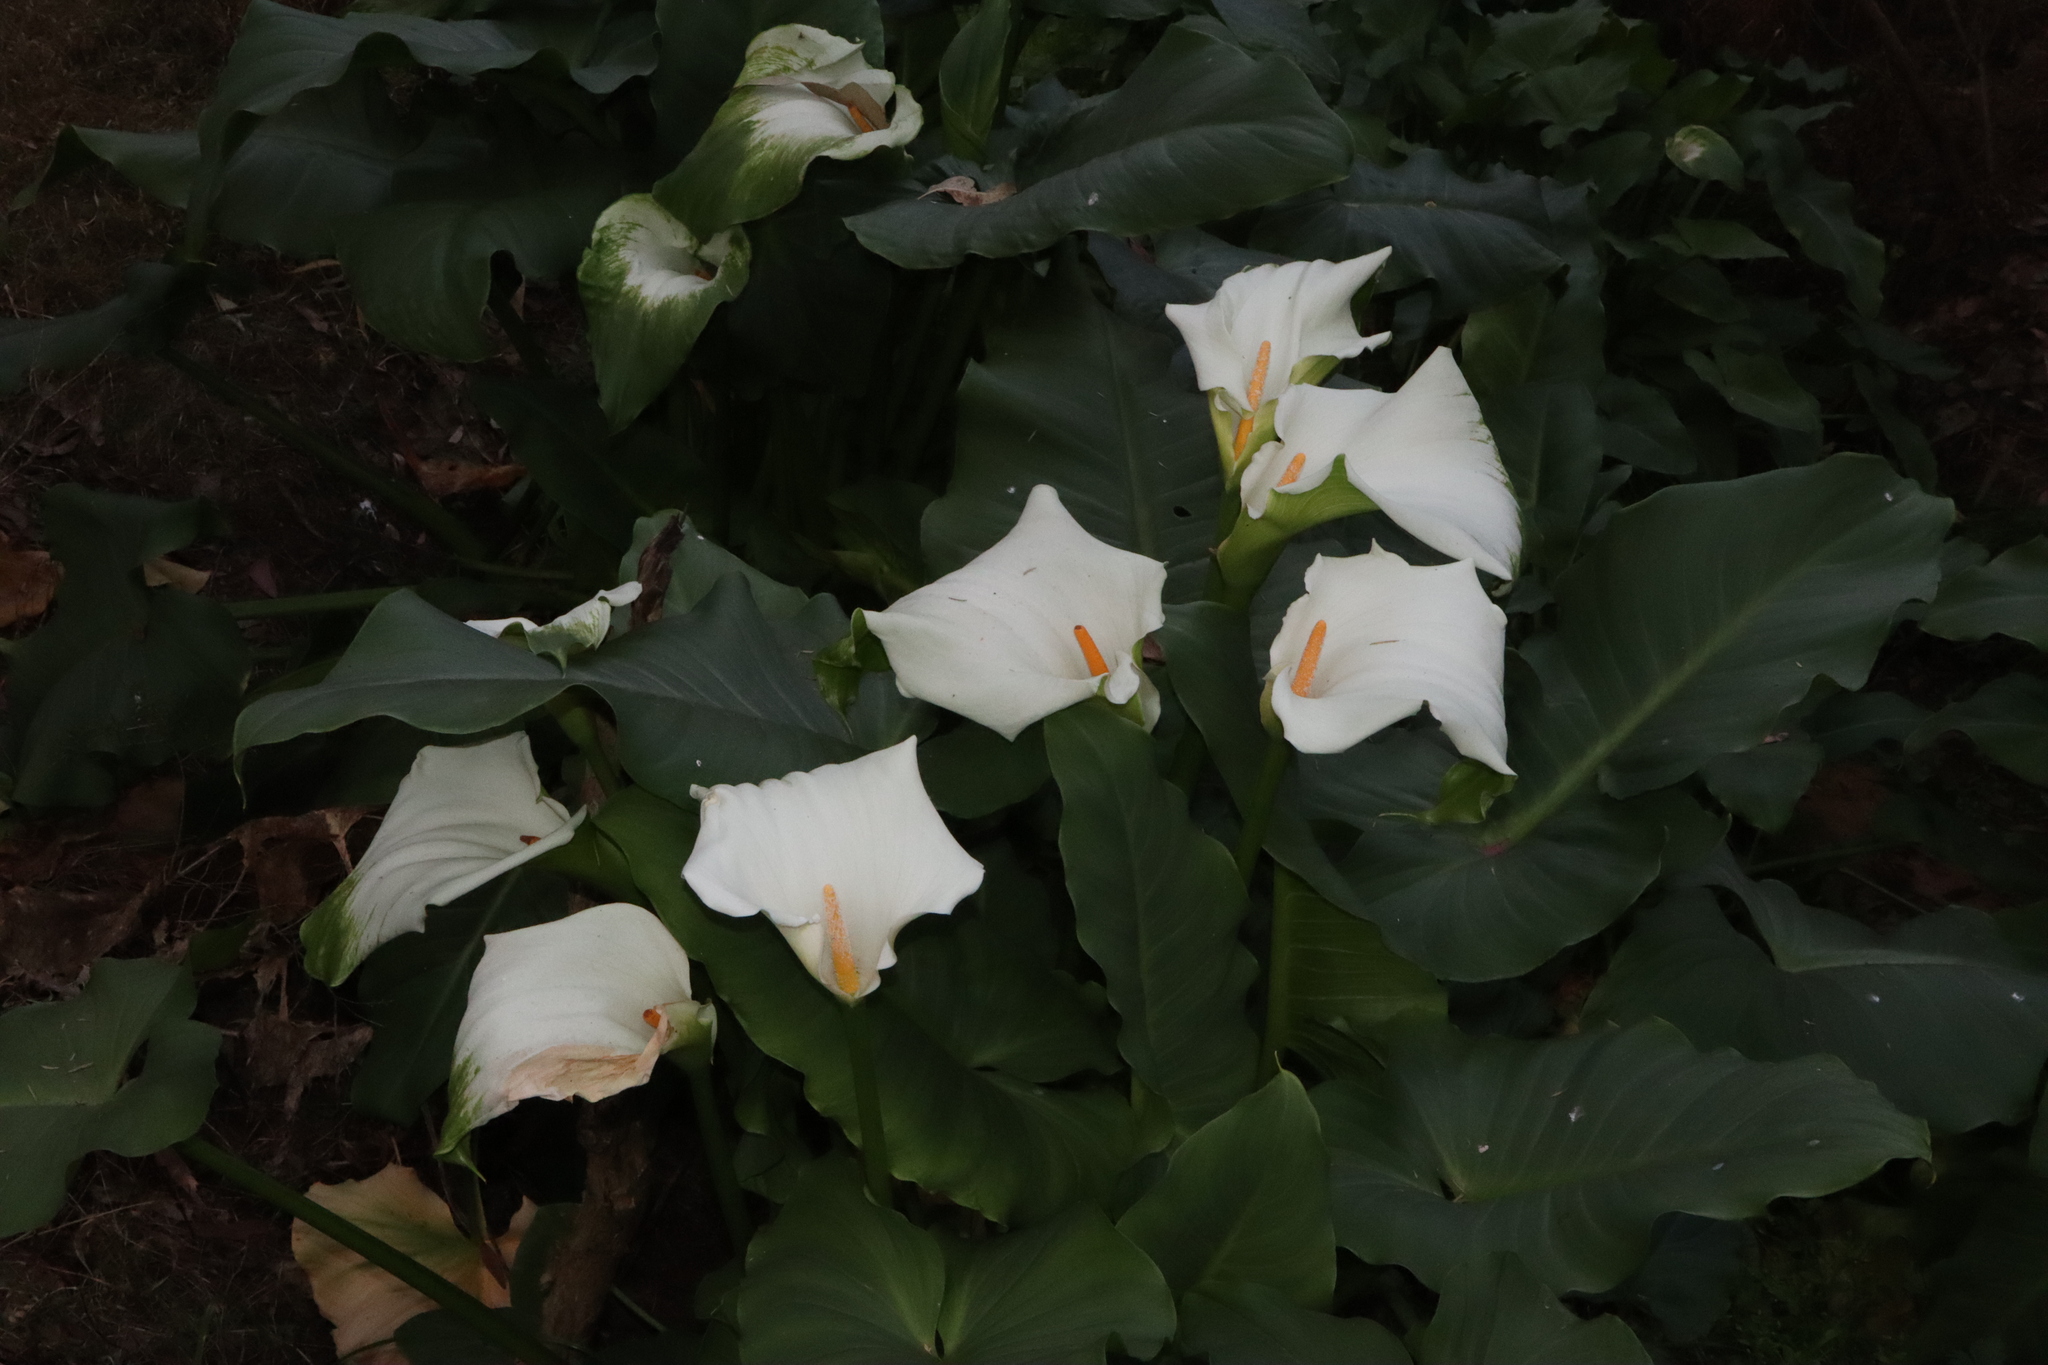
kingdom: Plantae
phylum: Tracheophyta
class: Liliopsida
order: Alismatales
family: Araceae
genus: Zantedeschia
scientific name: Zantedeschia aethiopica
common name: Altar-lily
